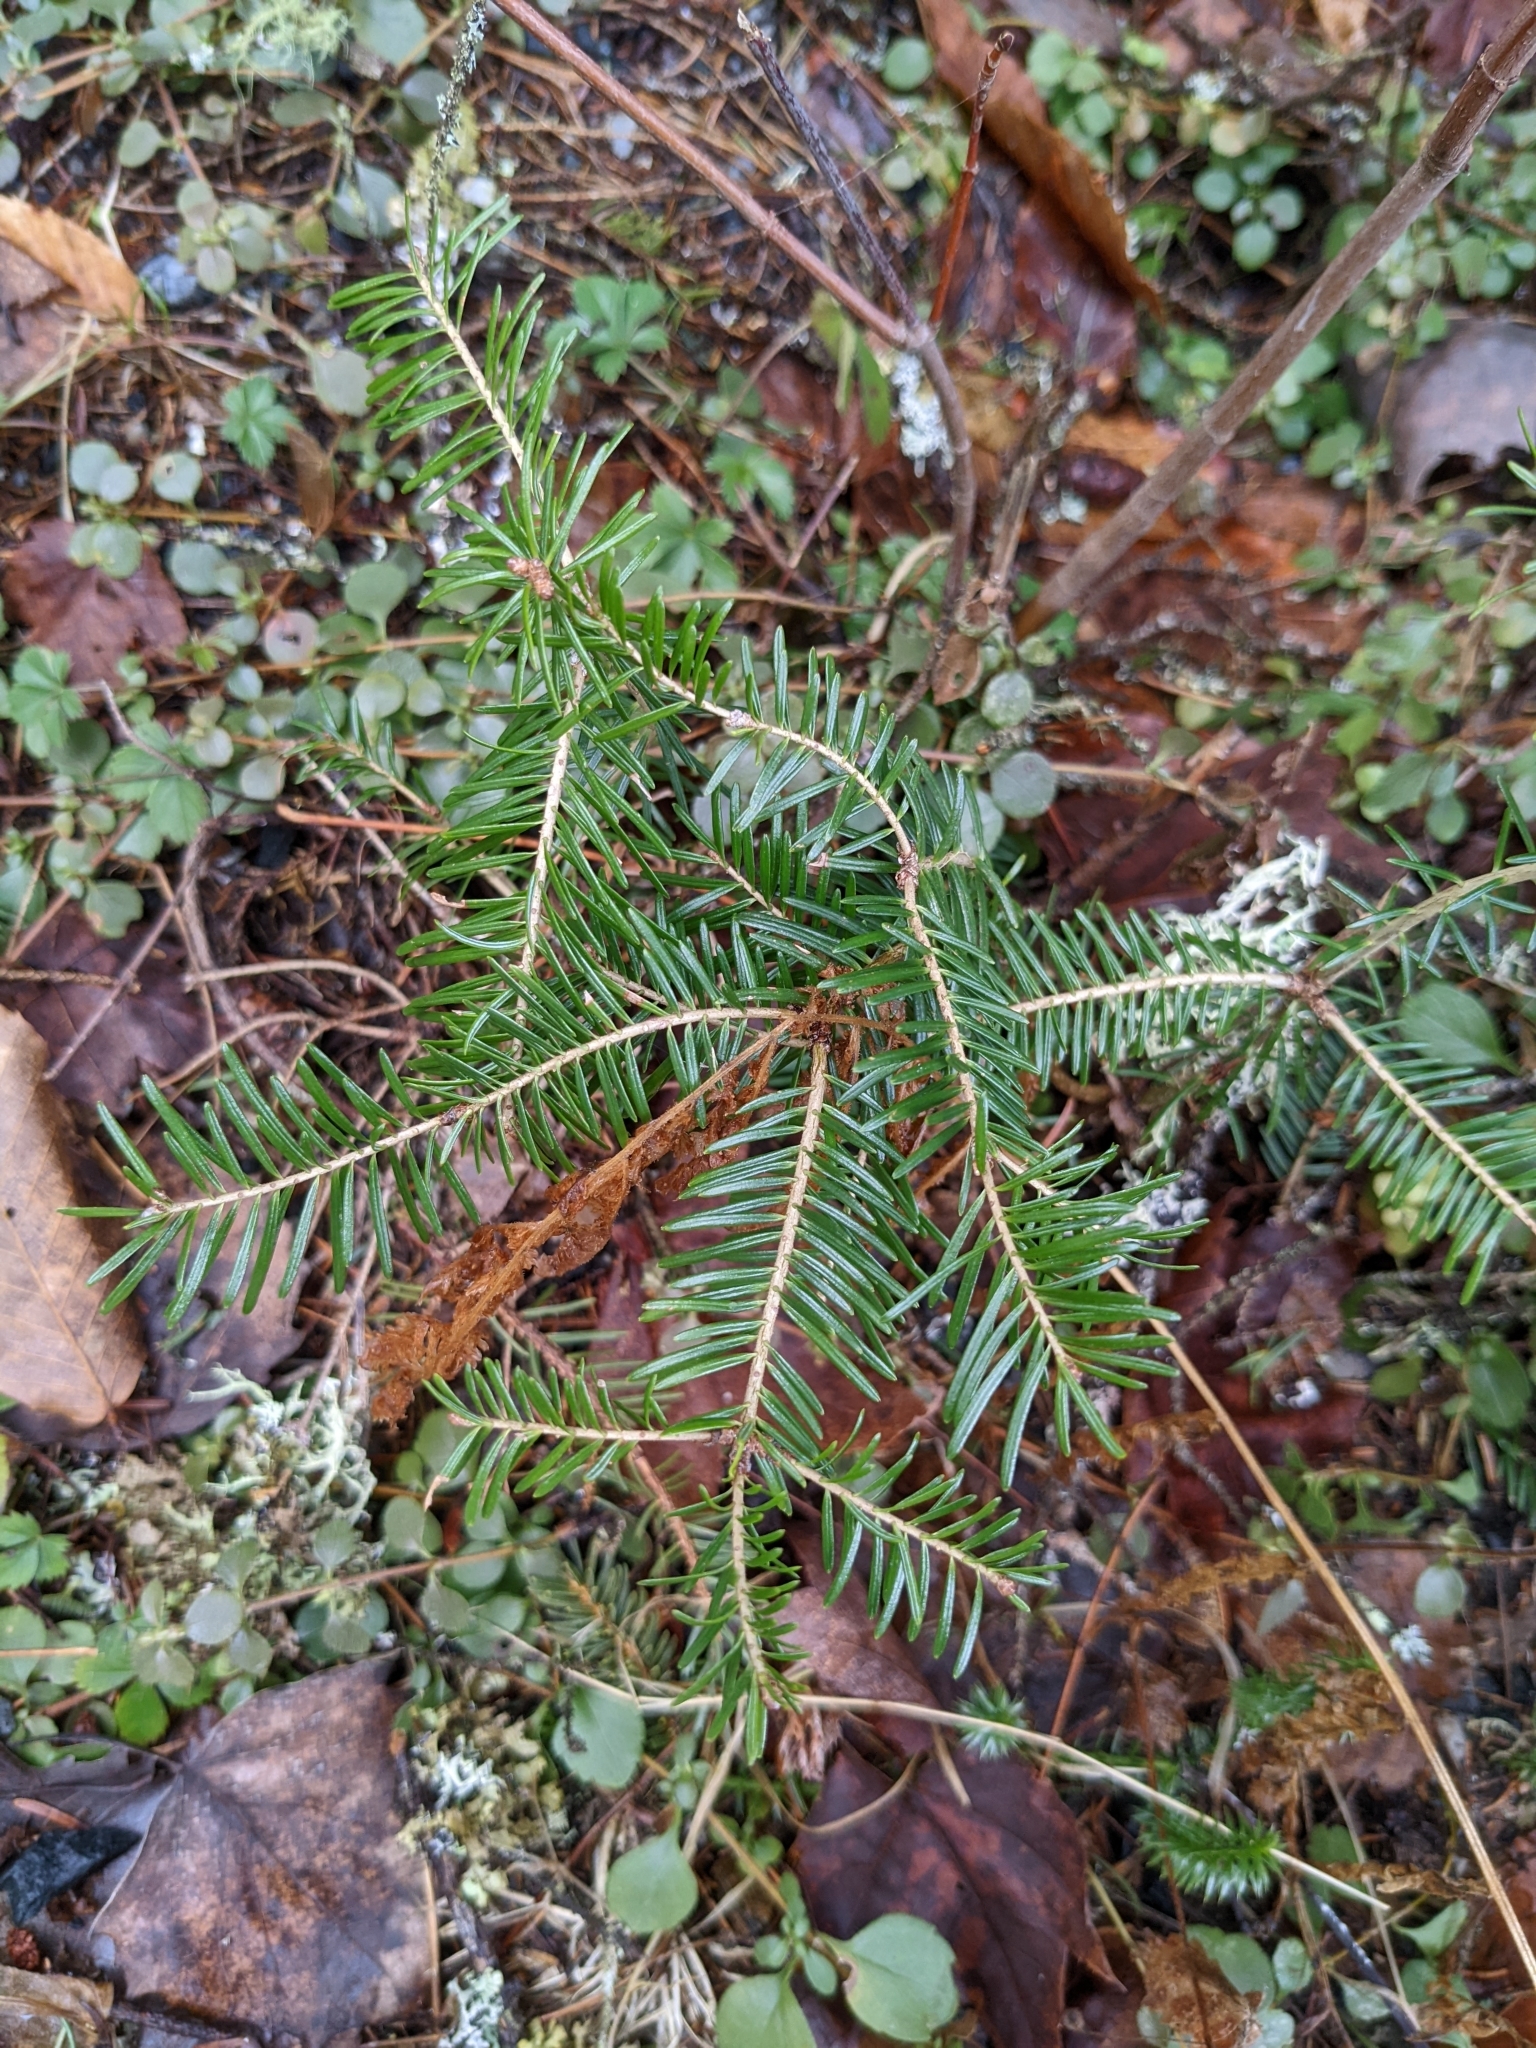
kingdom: Plantae
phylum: Tracheophyta
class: Pinopsida
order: Pinales
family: Pinaceae
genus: Abies
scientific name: Abies balsamea
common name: Balsam fir
